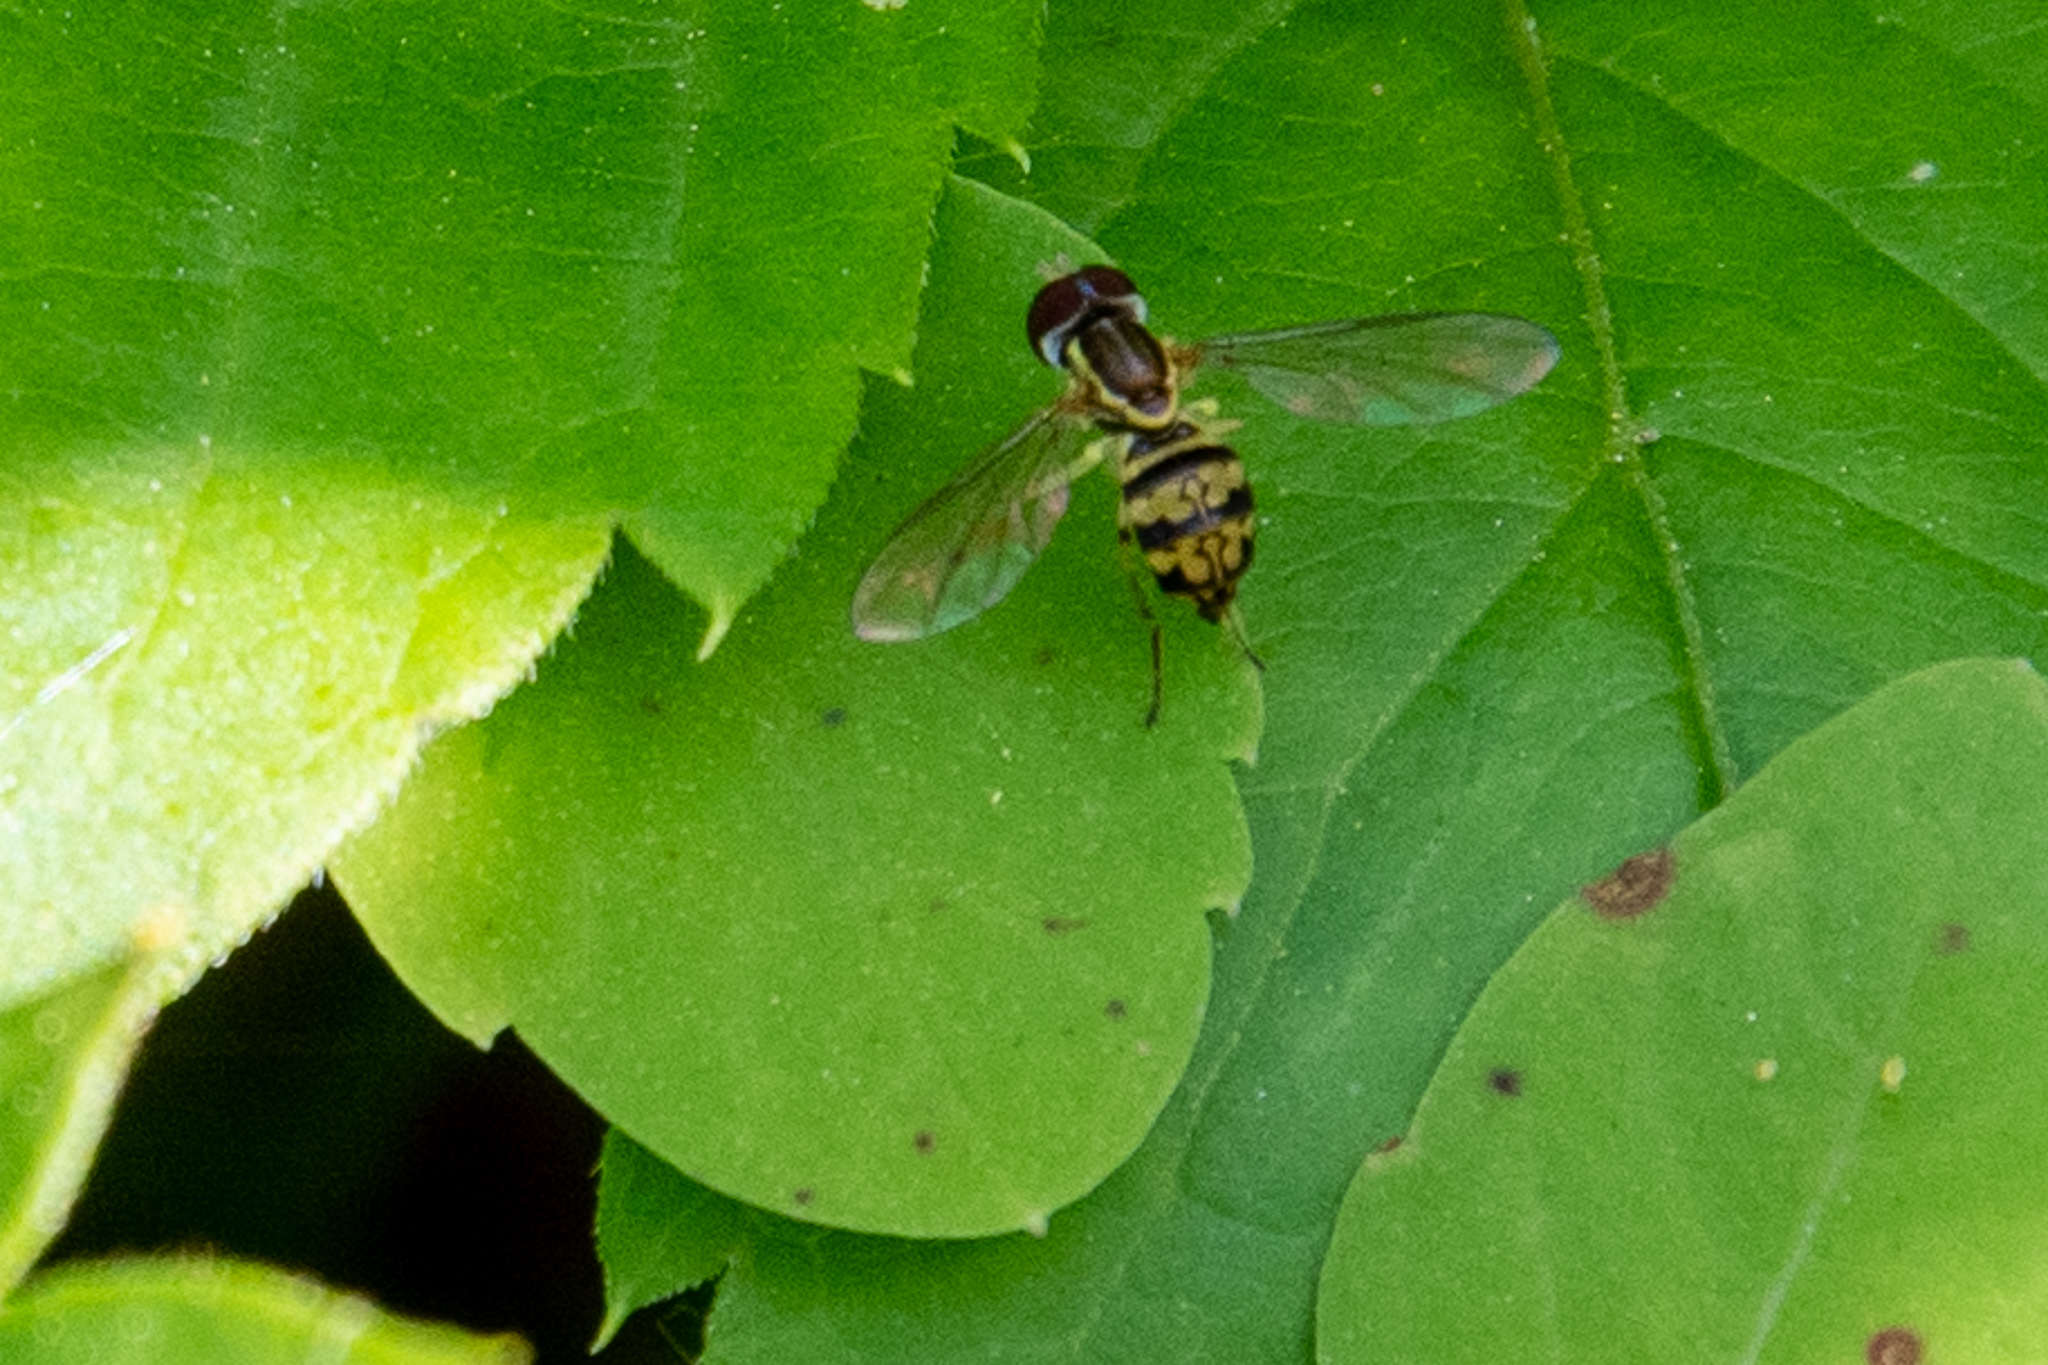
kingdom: Animalia
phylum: Arthropoda
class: Insecta
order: Diptera
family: Syrphidae
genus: Toxomerus
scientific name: Toxomerus geminatus
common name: Eastern calligrapher
